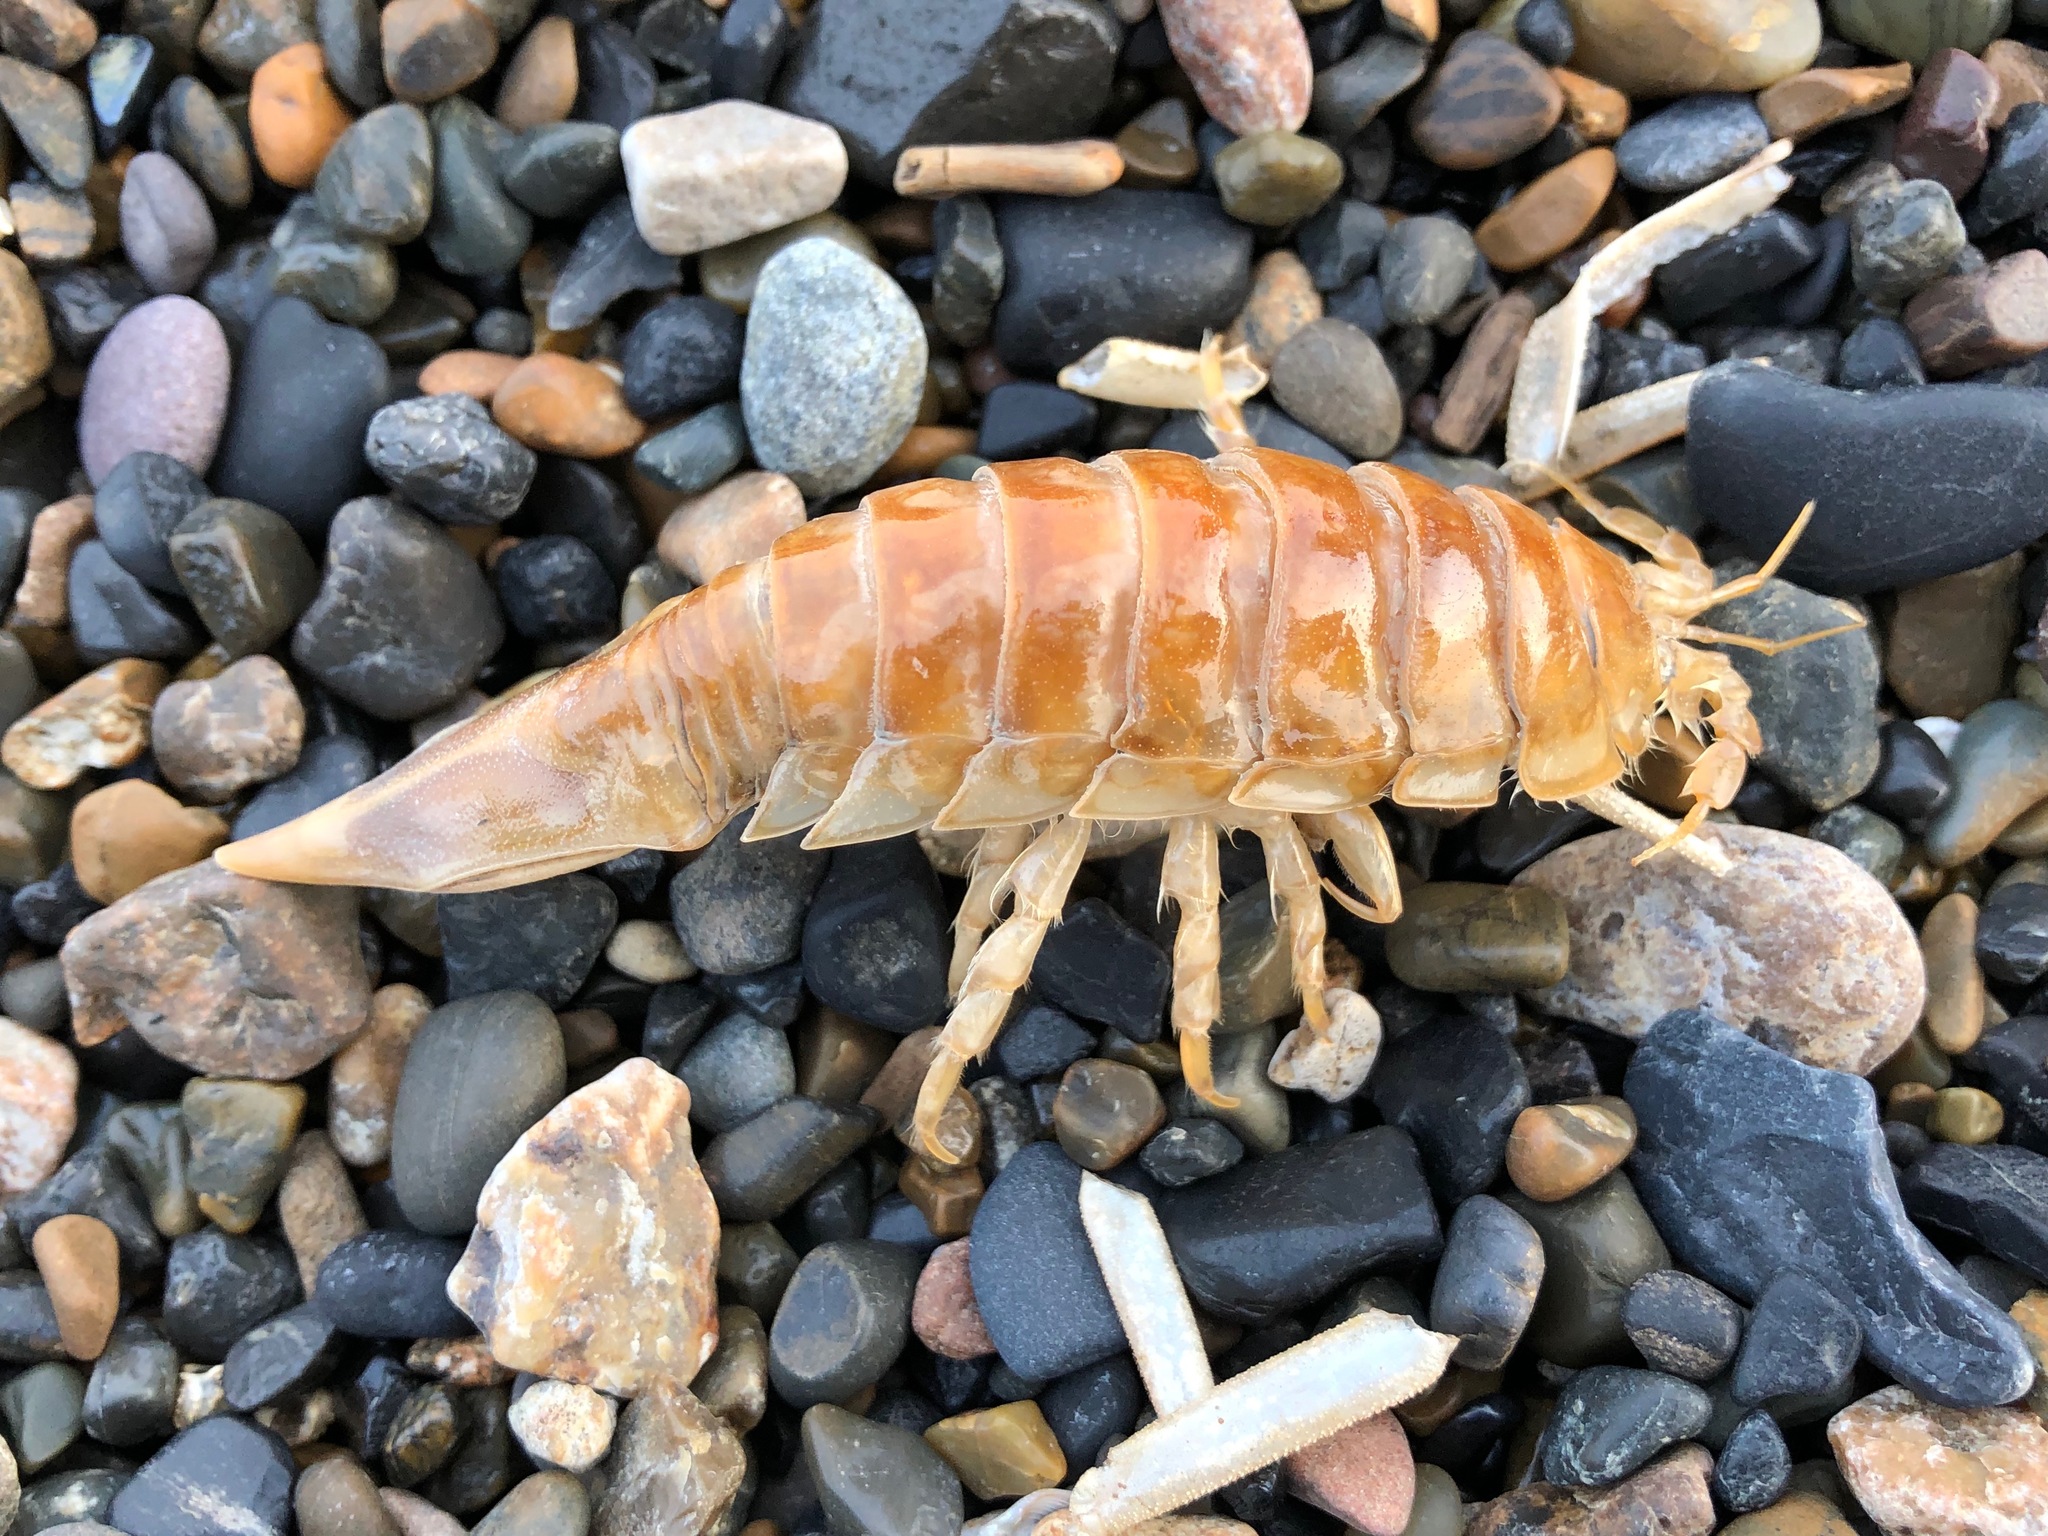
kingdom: Animalia
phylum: Arthropoda
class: Malacostraca
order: Isopoda
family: Chaetiliidae
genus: Saduria
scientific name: Saduria entomon
